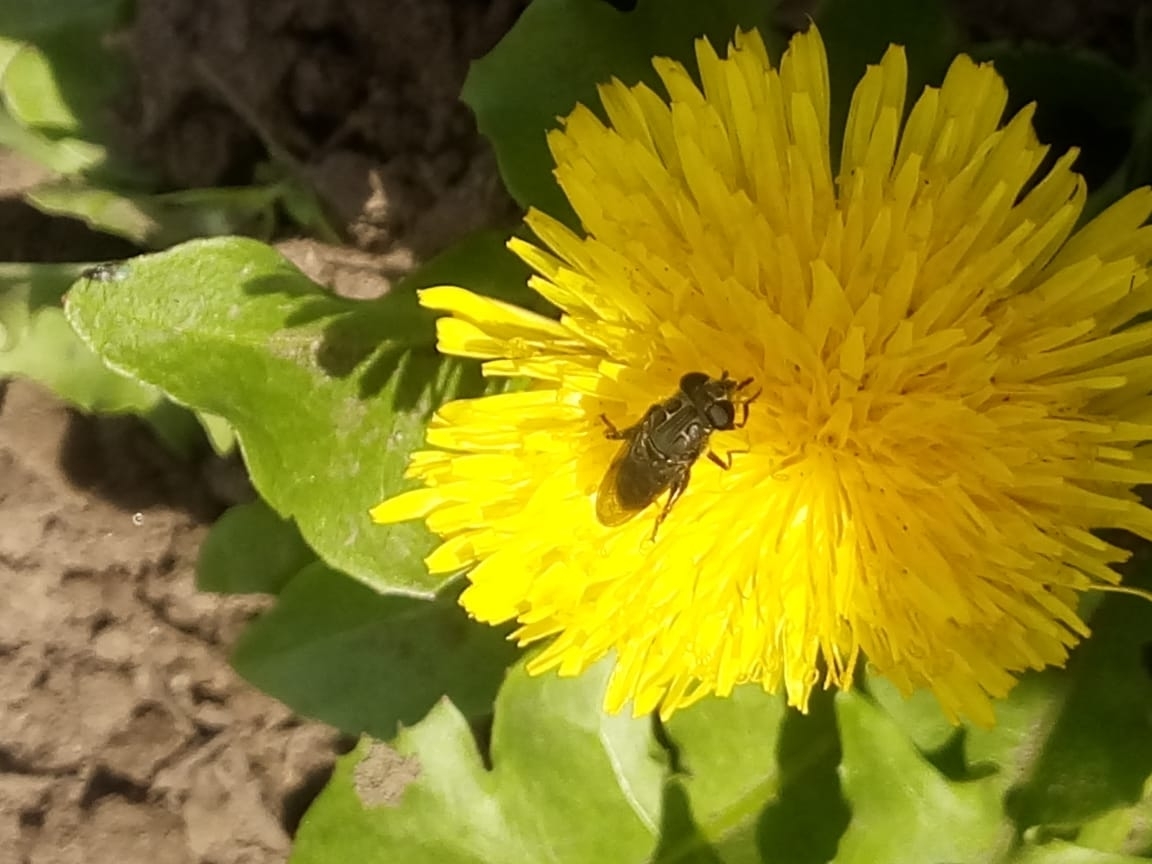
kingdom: Animalia
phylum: Arthropoda
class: Insecta
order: Diptera
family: Syrphidae
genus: Asemosyrphus
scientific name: Asemosyrphus
